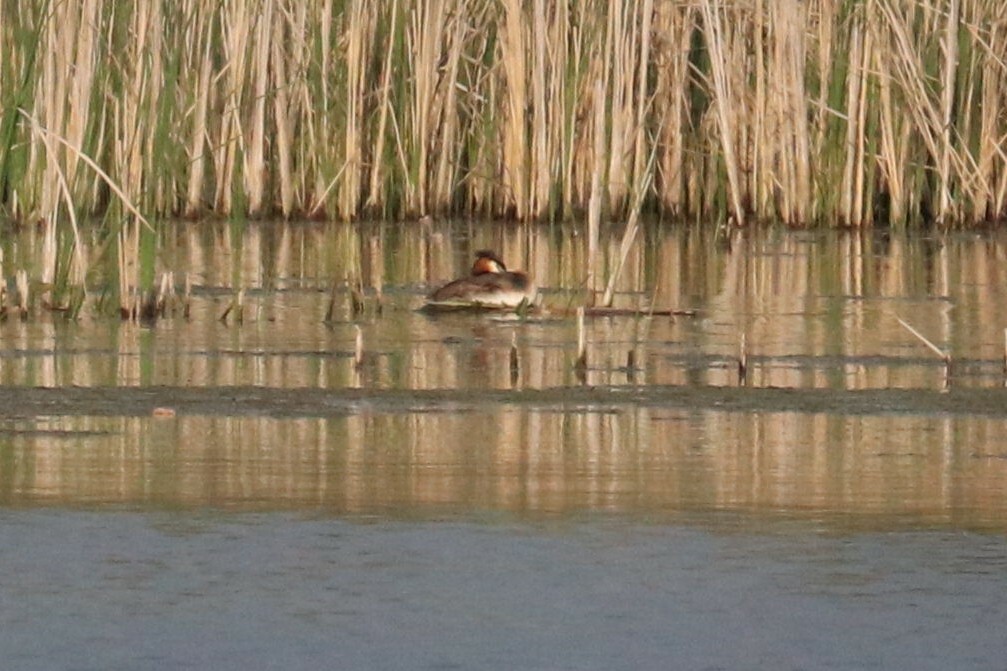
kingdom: Animalia
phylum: Chordata
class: Aves
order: Podicipediformes
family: Podicipedidae
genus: Podiceps
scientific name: Podiceps cristatus
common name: Great crested grebe
